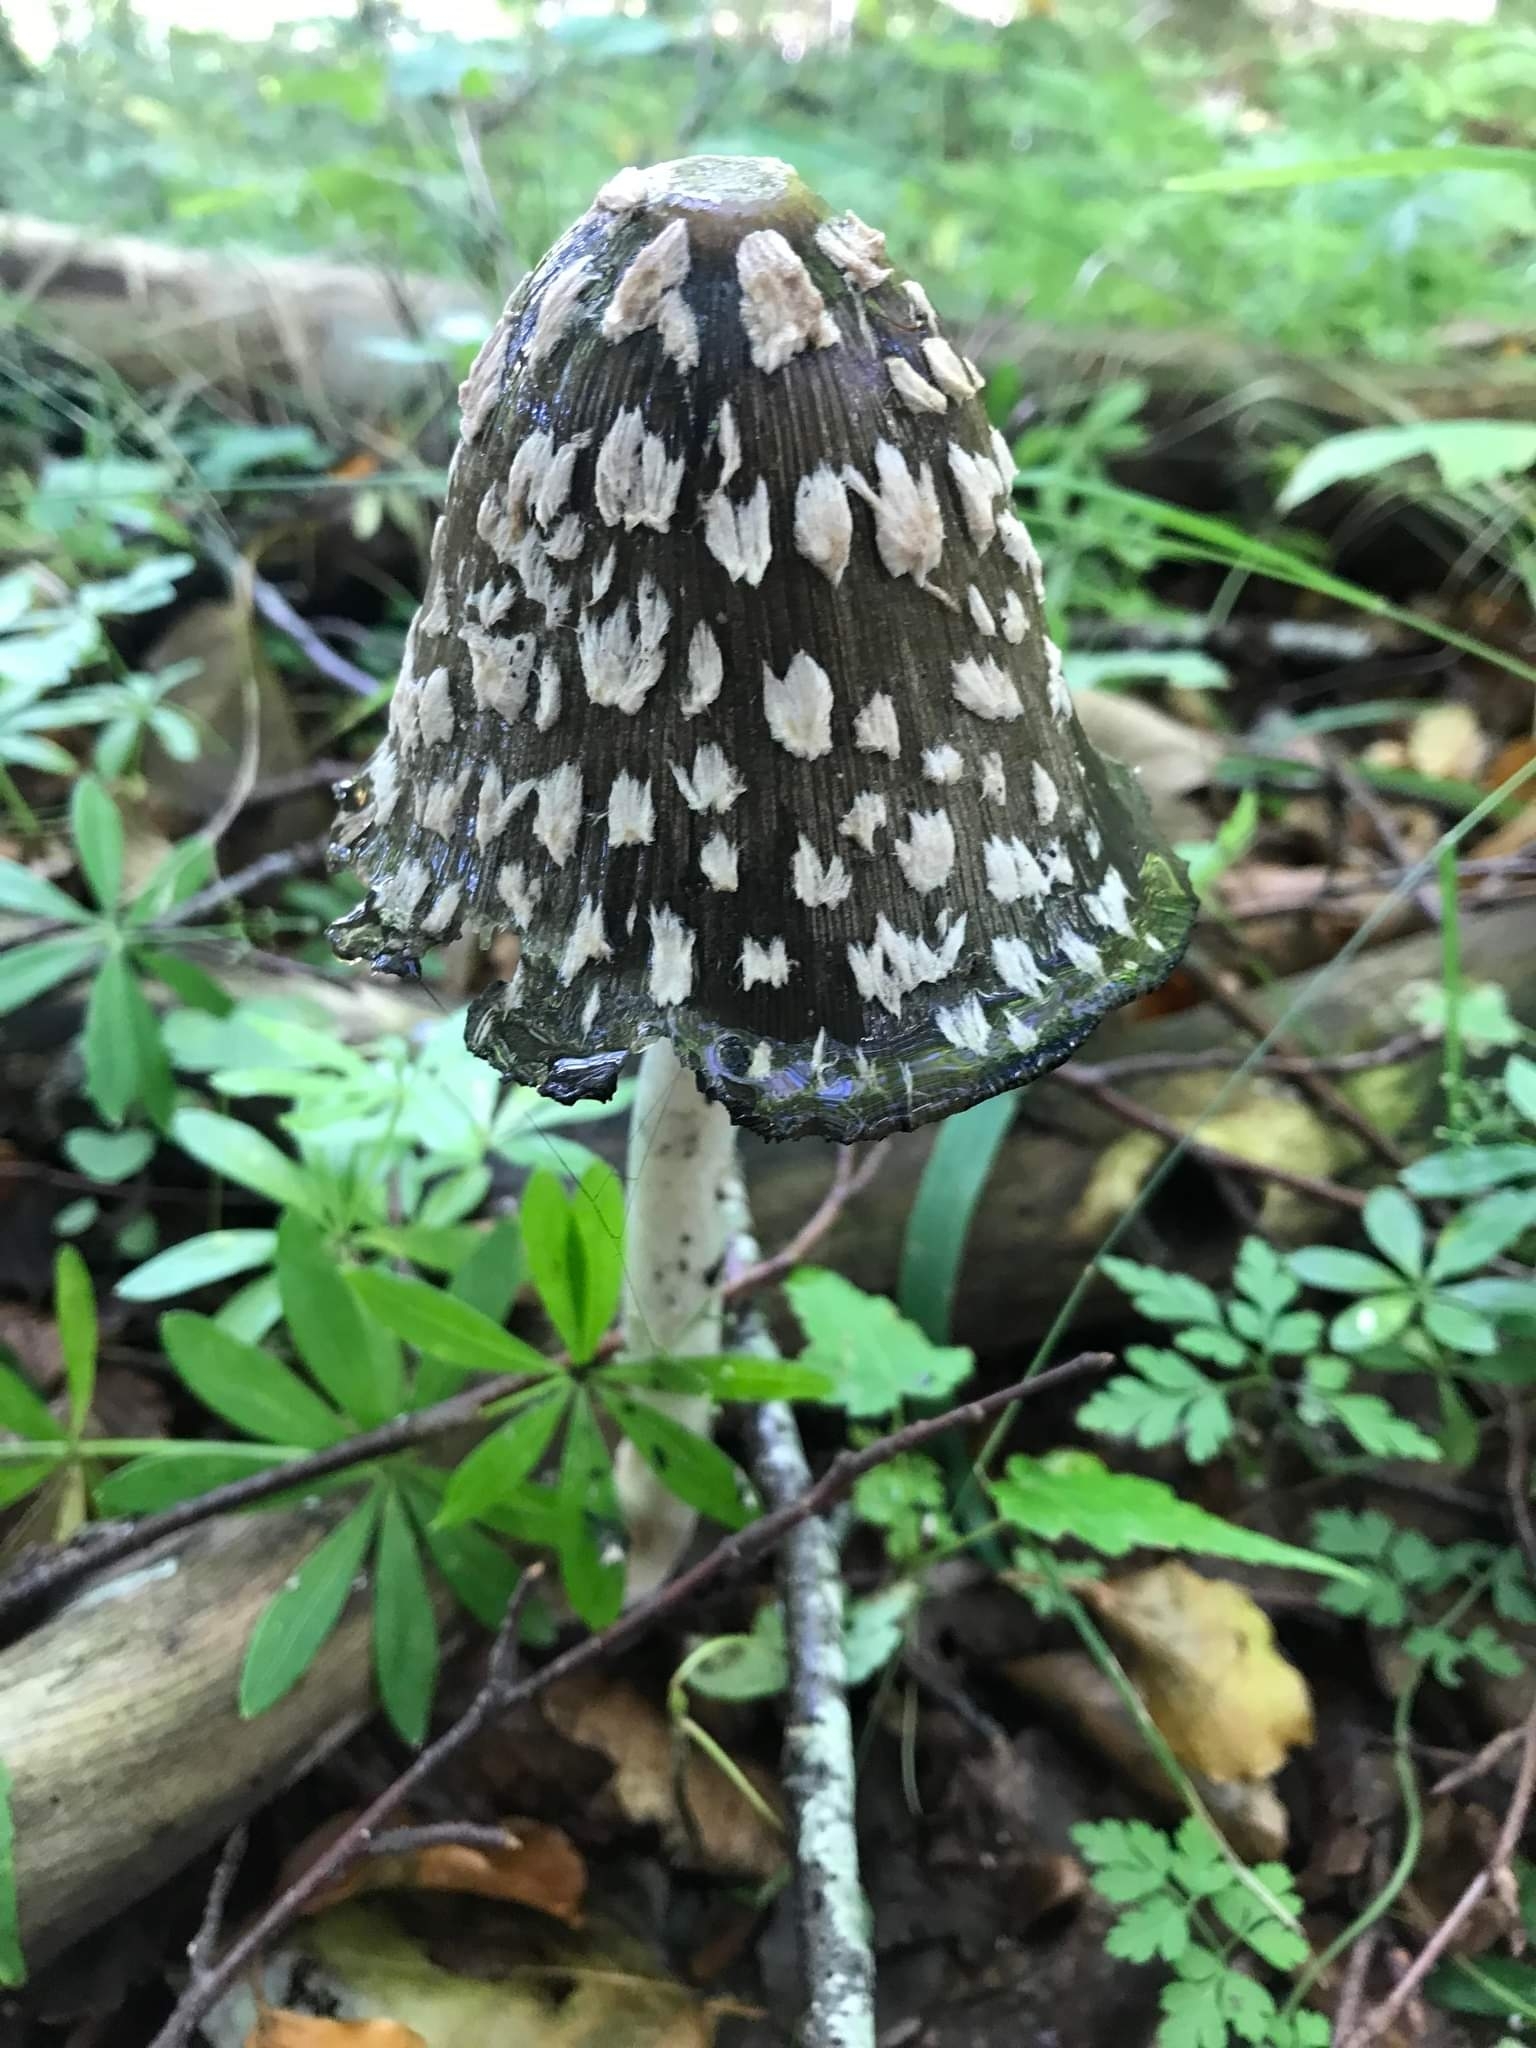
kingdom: Fungi
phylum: Basidiomycota
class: Agaricomycetes
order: Agaricales
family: Psathyrellaceae
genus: Coprinopsis
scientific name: Coprinopsis picacea
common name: Magpie inkcap
